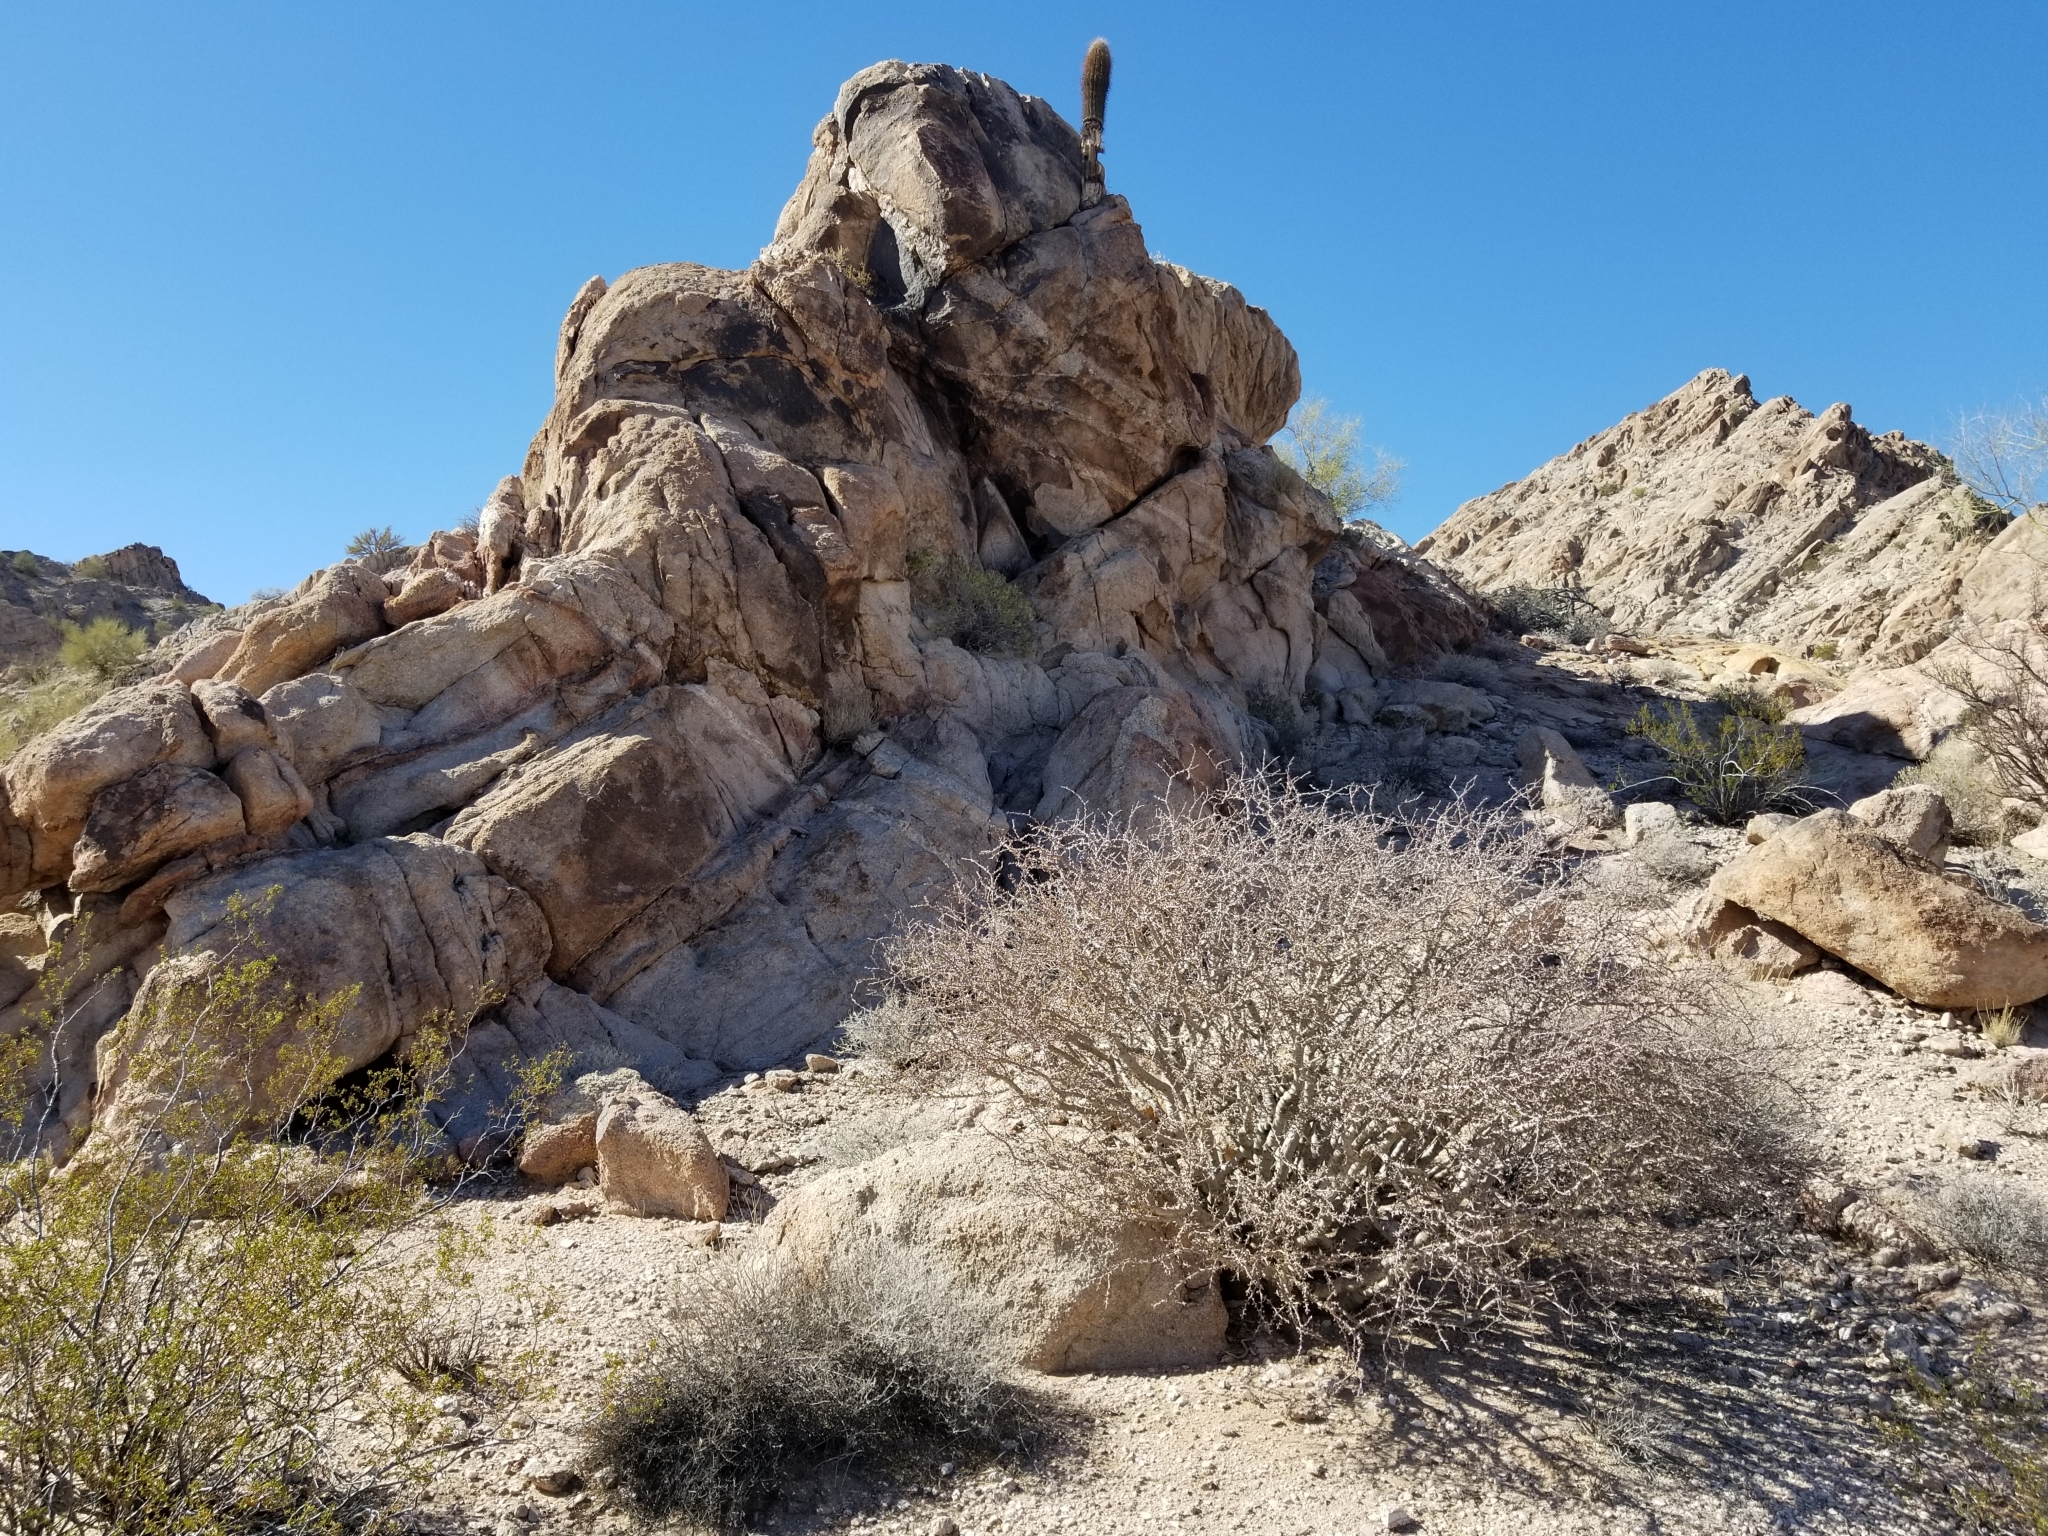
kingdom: Plantae
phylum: Tracheophyta
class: Magnoliopsida
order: Malpighiales
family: Euphorbiaceae
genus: Jatropha
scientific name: Jatropha cuneata
